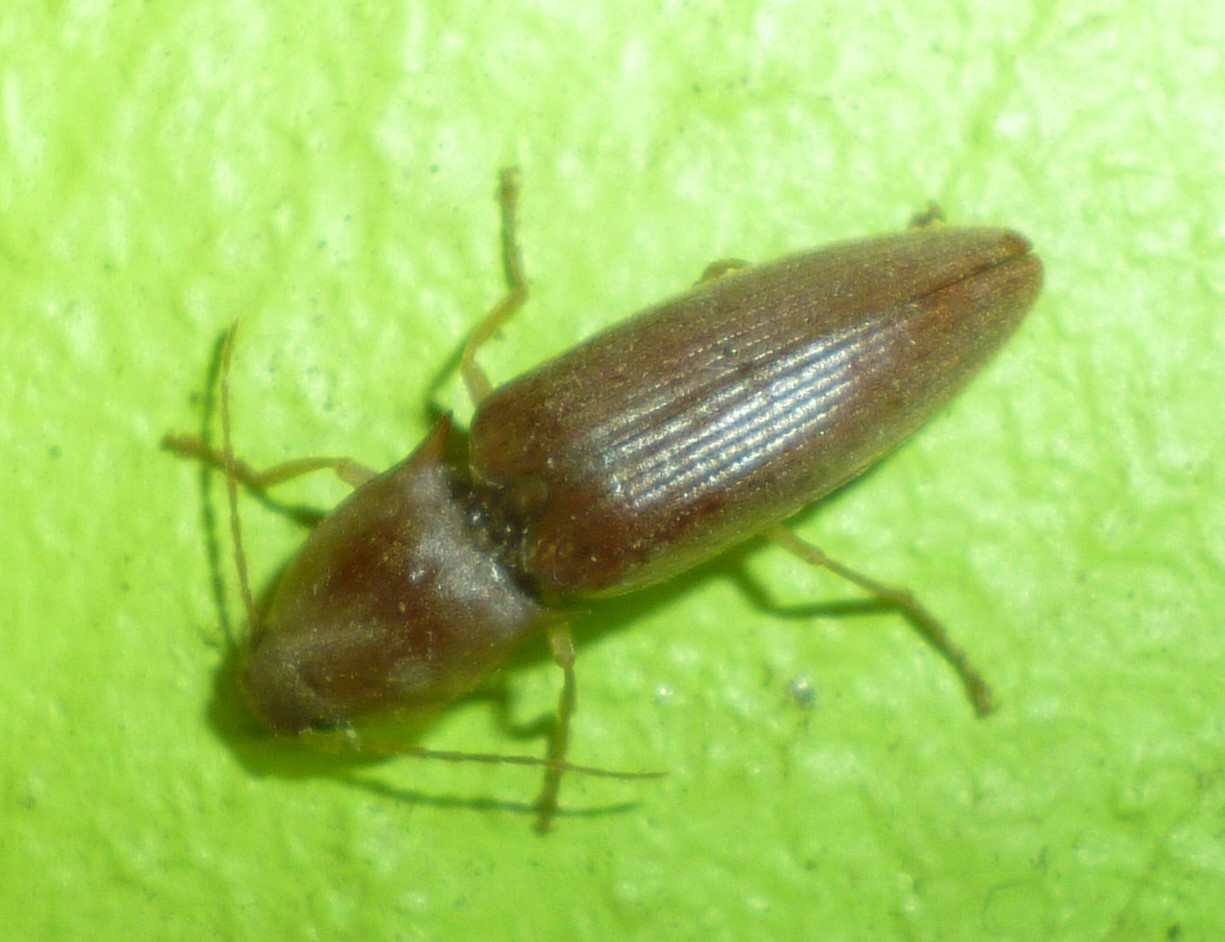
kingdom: Animalia
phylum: Arthropoda
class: Insecta
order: Coleoptera
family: Elateridae
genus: Monocrepidius
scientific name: Monocrepidius lividus
